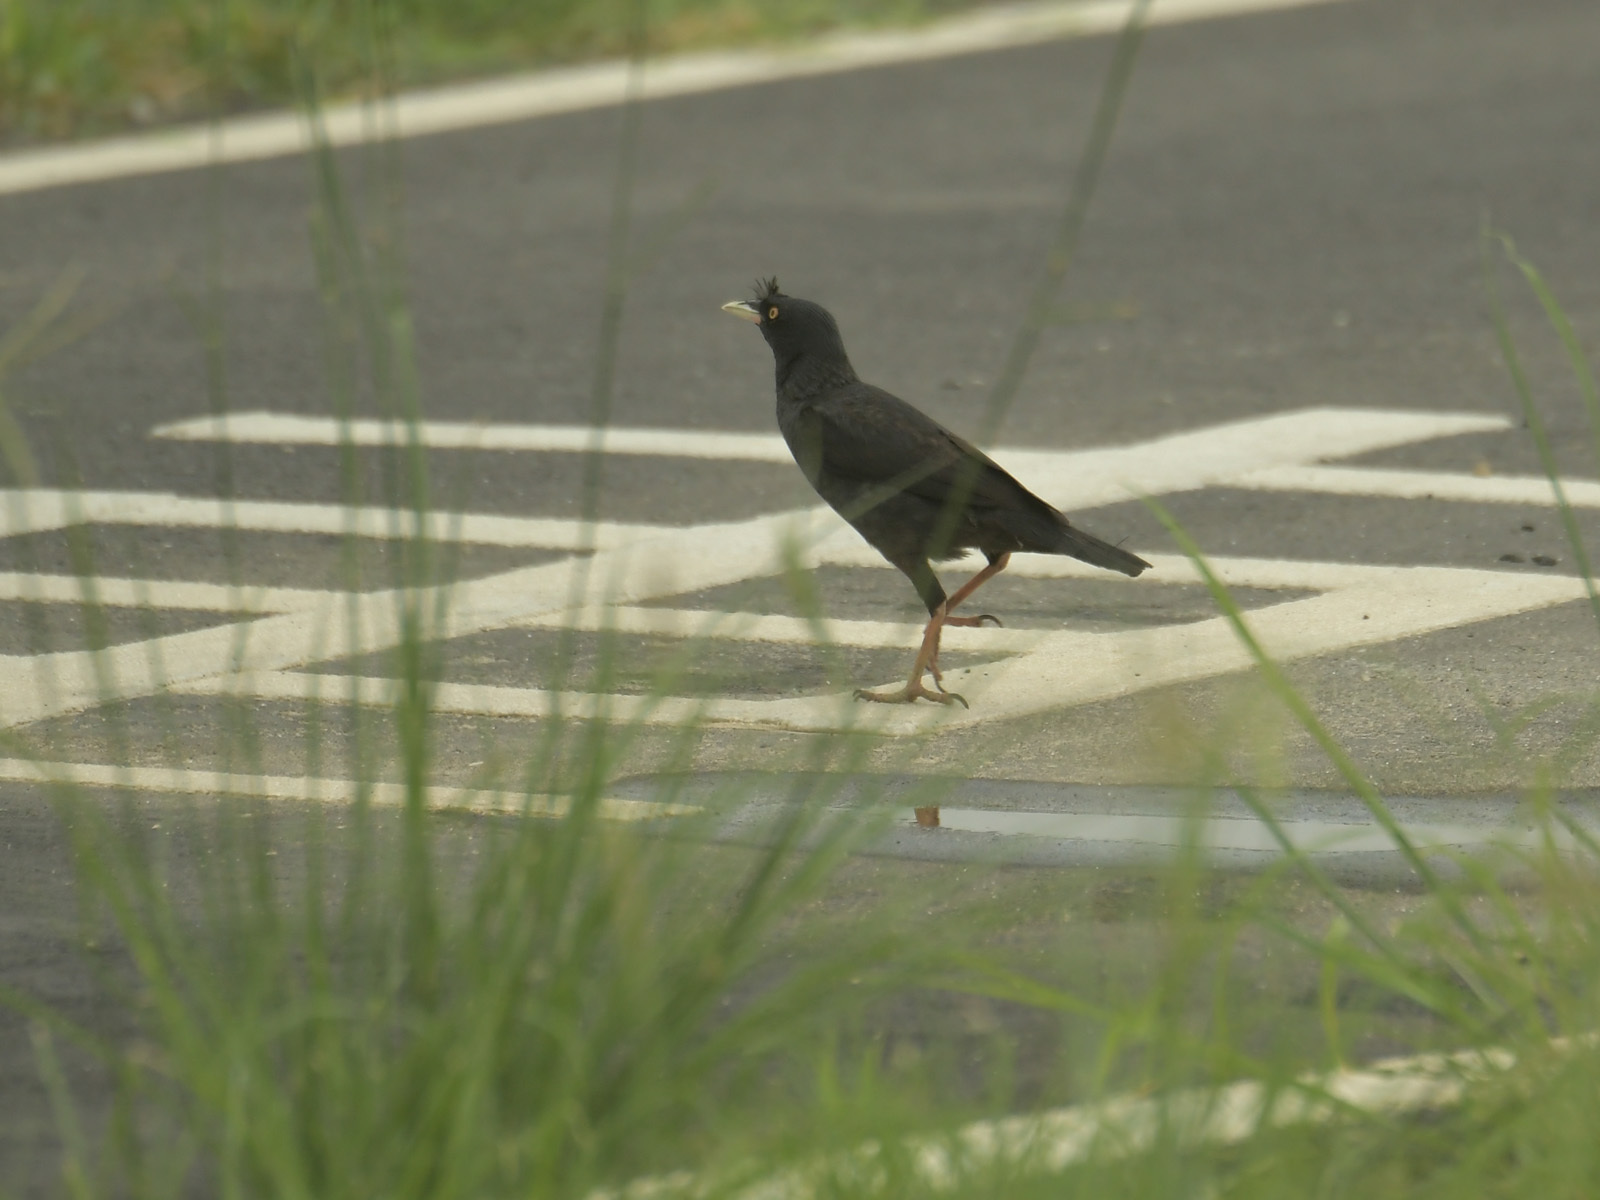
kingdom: Animalia
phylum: Chordata
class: Aves
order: Passeriformes
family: Sturnidae
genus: Acridotheres
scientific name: Acridotheres cristatellus
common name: Crested myna
